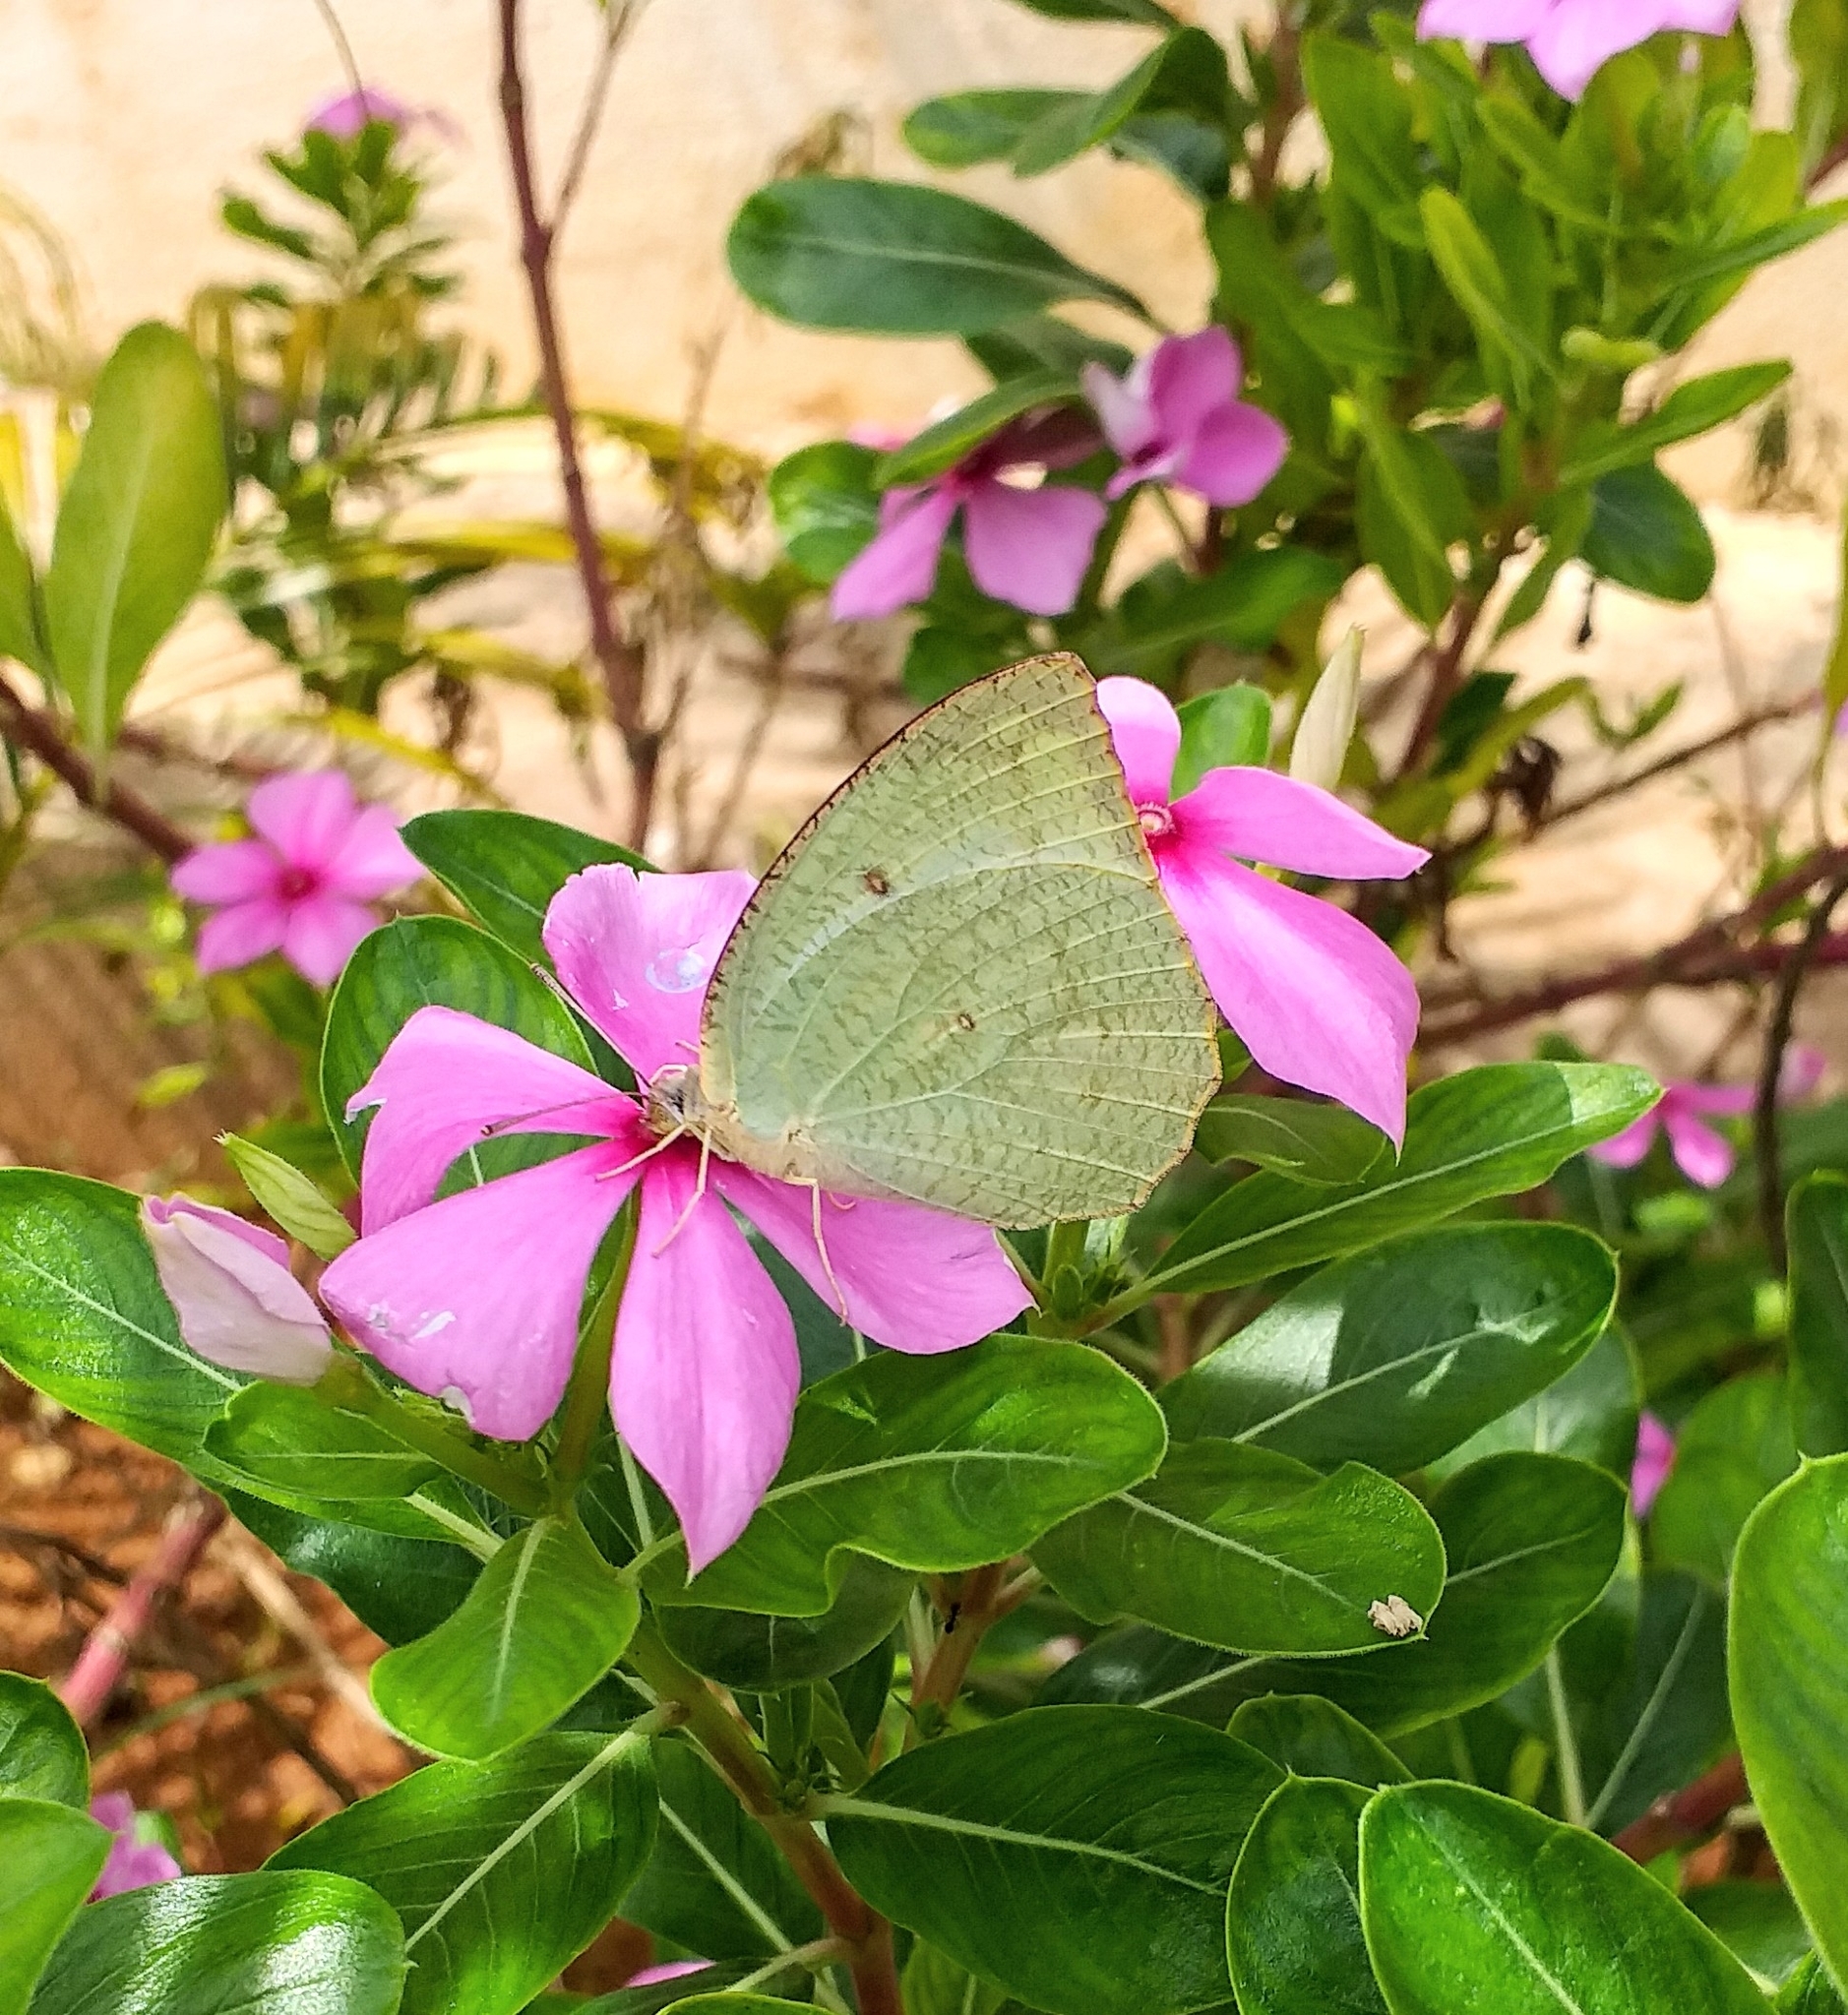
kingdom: Animalia
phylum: Arthropoda
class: Insecta
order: Lepidoptera
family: Pieridae
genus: Catopsilia
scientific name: Catopsilia pyranthe
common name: Mottled emigrant
